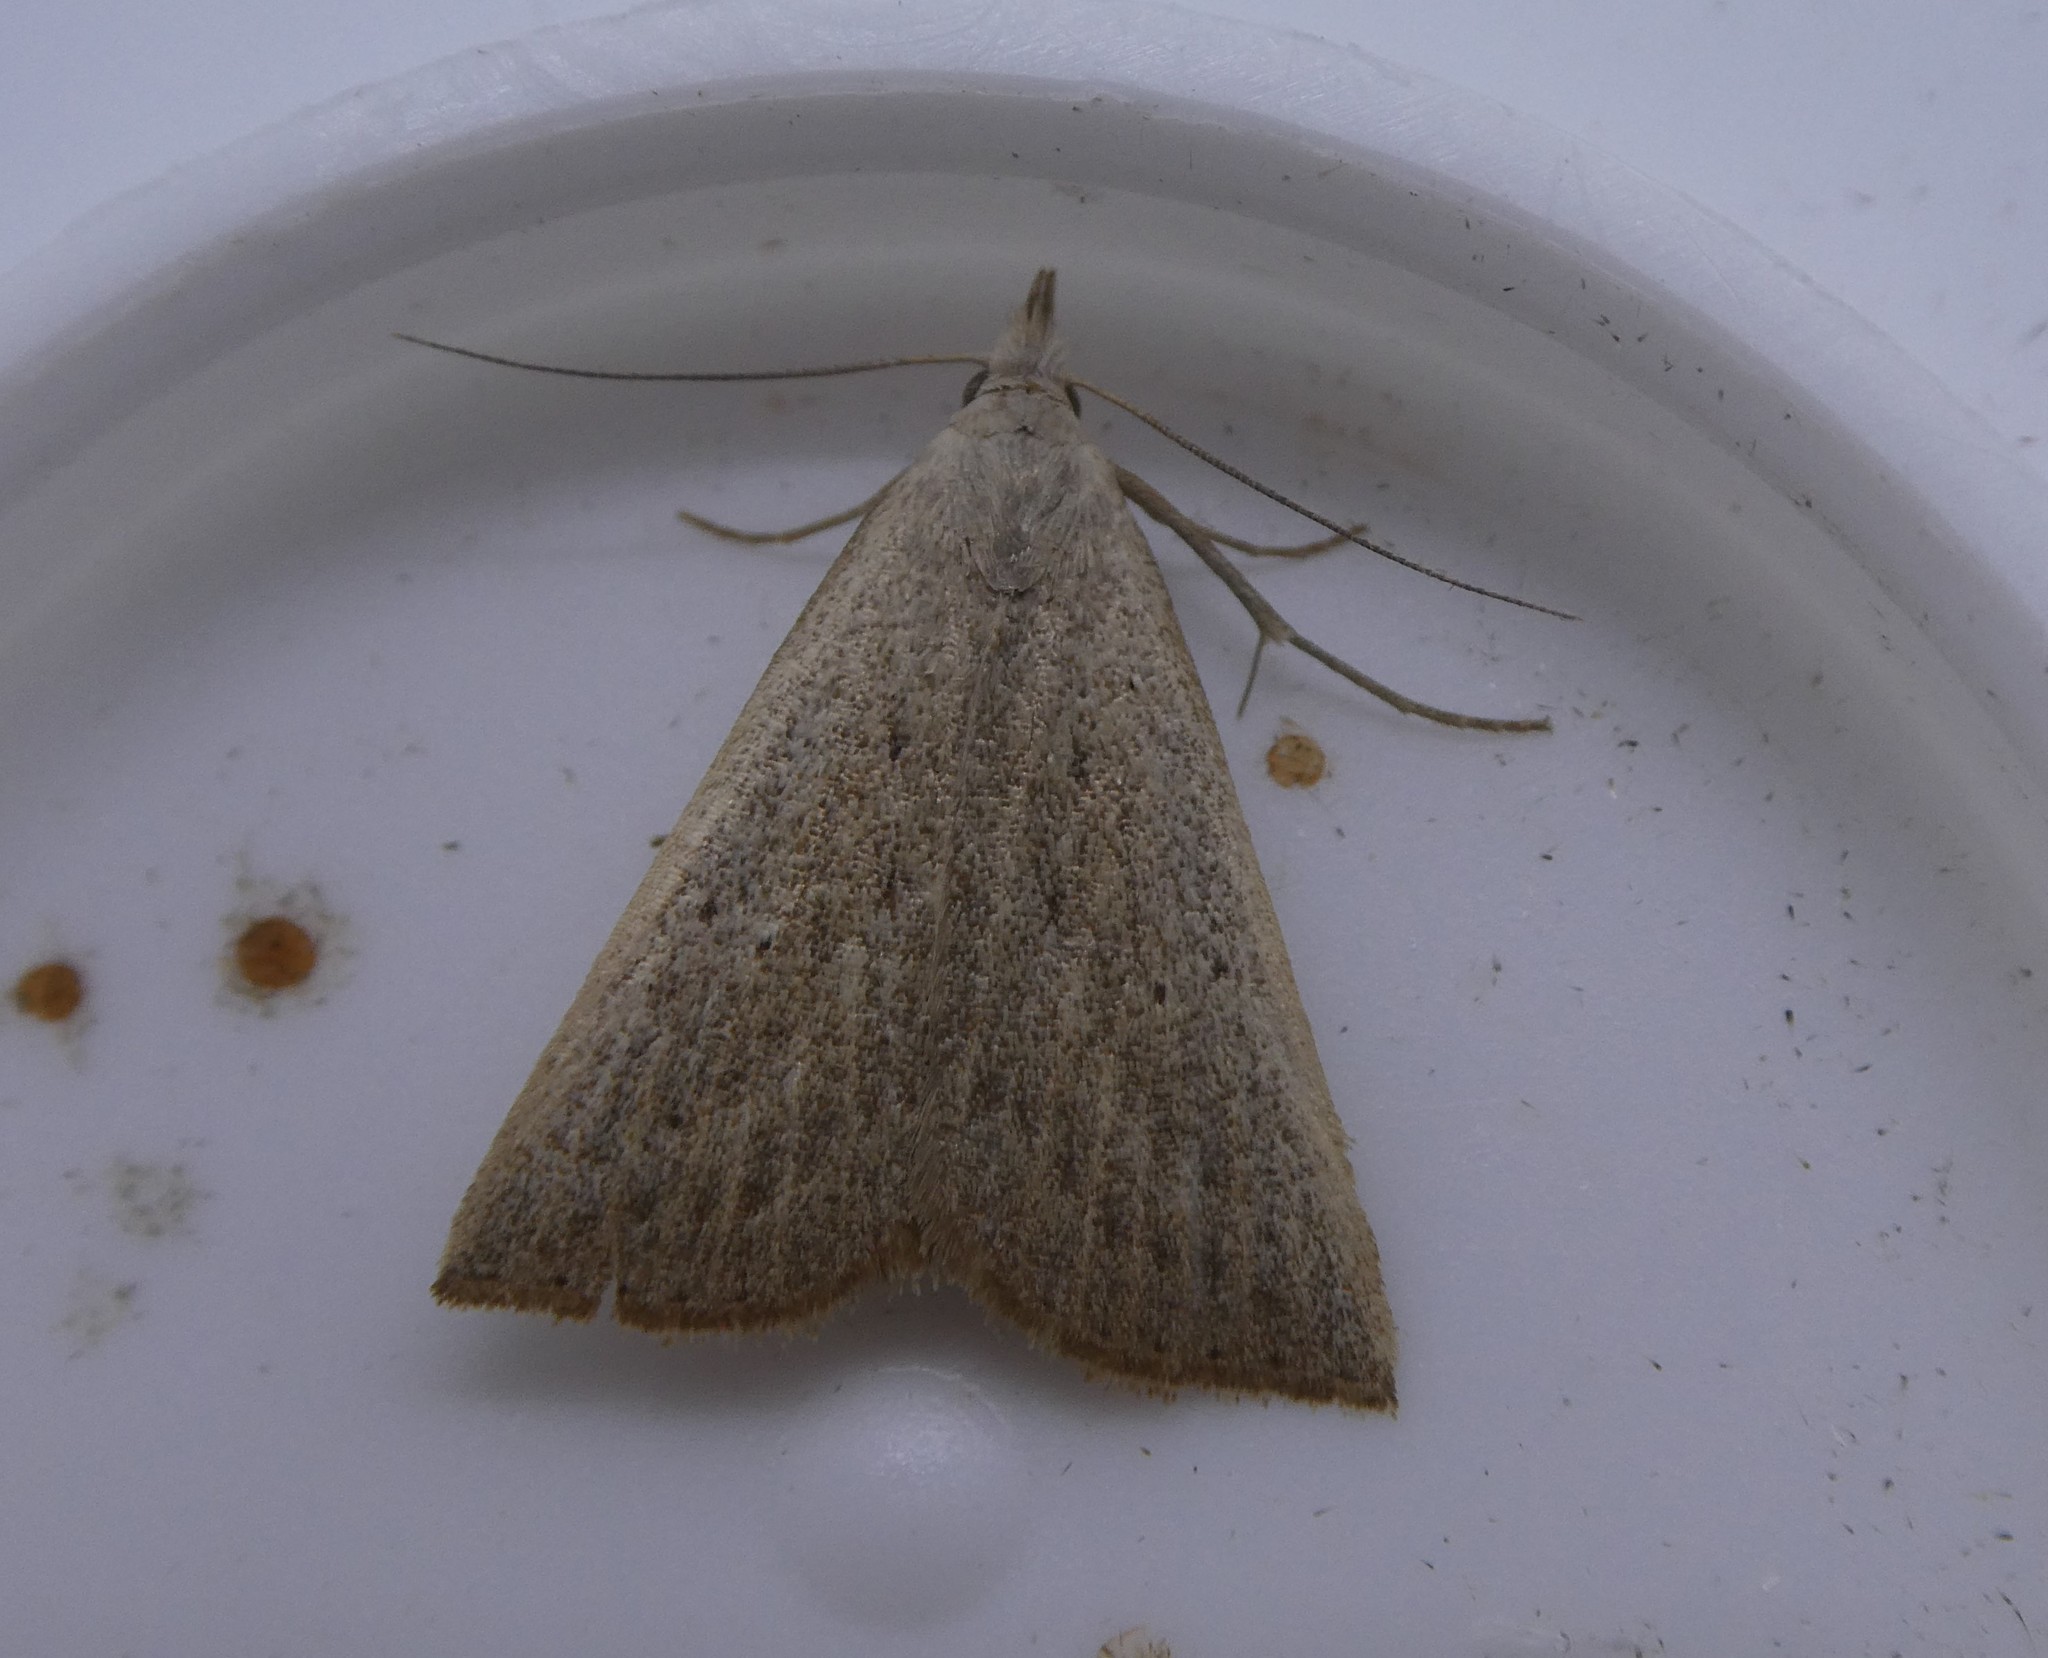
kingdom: Animalia
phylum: Arthropoda
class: Insecta
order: Lepidoptera
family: Erebidae
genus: Macrochilo
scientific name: Macrochilo louisiana
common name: Louisiana macrochilo
